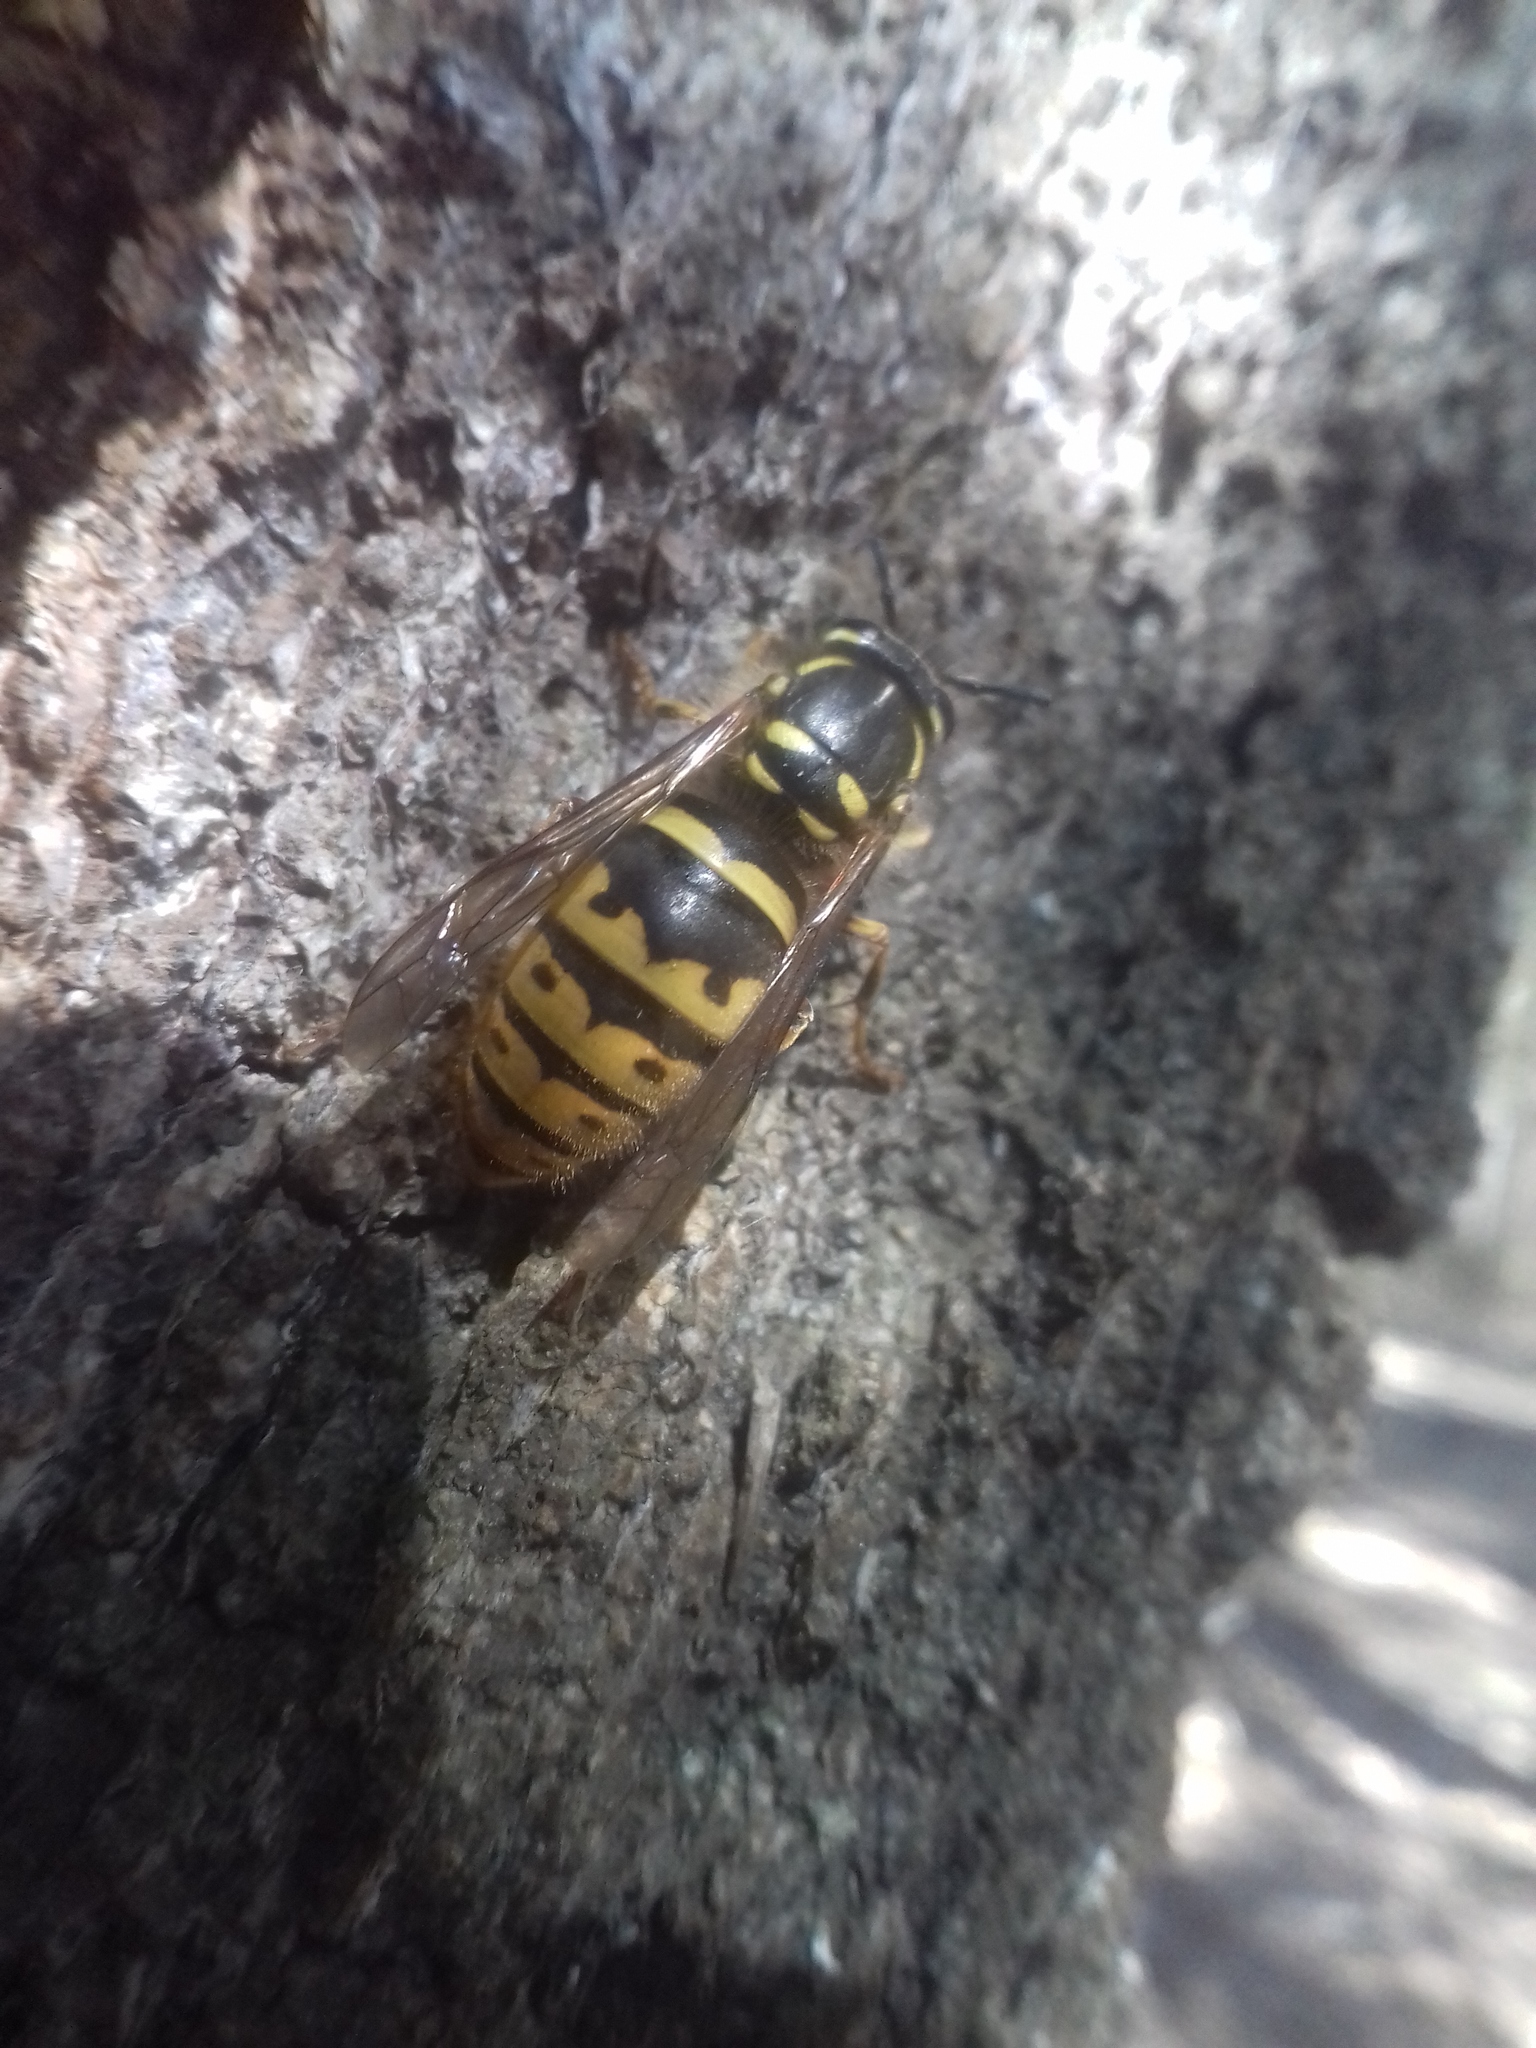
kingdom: Animalia
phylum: Arthropoda
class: Insecta
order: Hymenoptera
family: Vespidae
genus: Vespula
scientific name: Vespula vulgaris
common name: Common wasp
